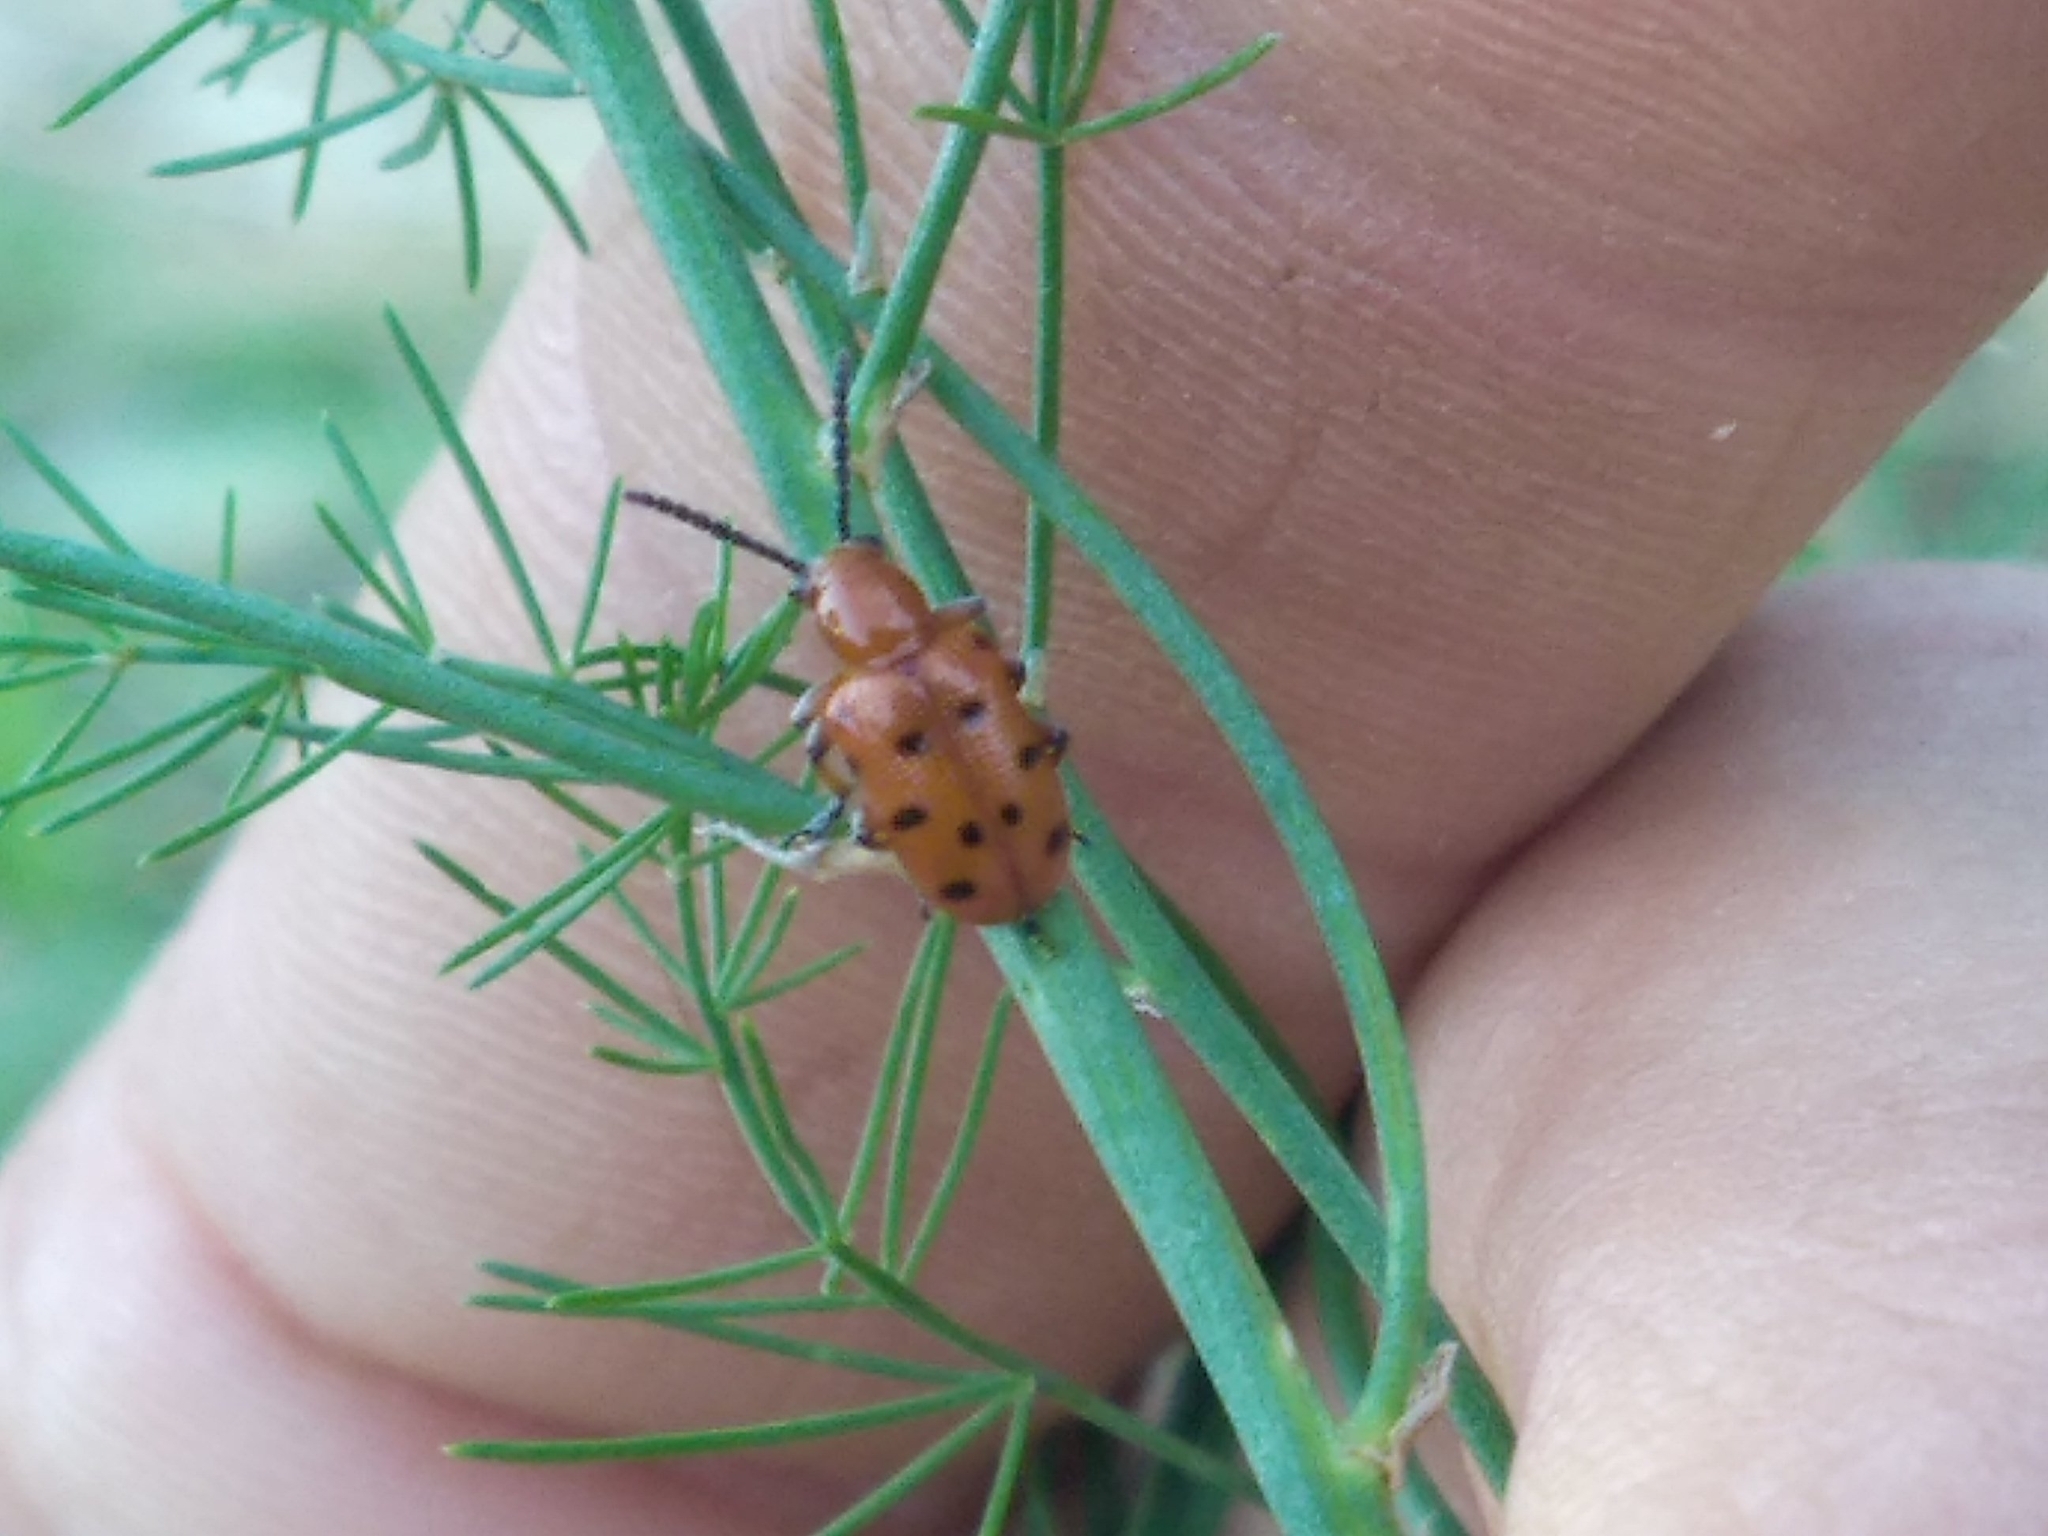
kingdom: Animalia
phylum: Arthropoda
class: Insecta
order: Coleoptera
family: Chrysomelidae
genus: Crioceris
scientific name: Crioceris duodecimpunctata
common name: Twelve-spotted asparagus beetle
